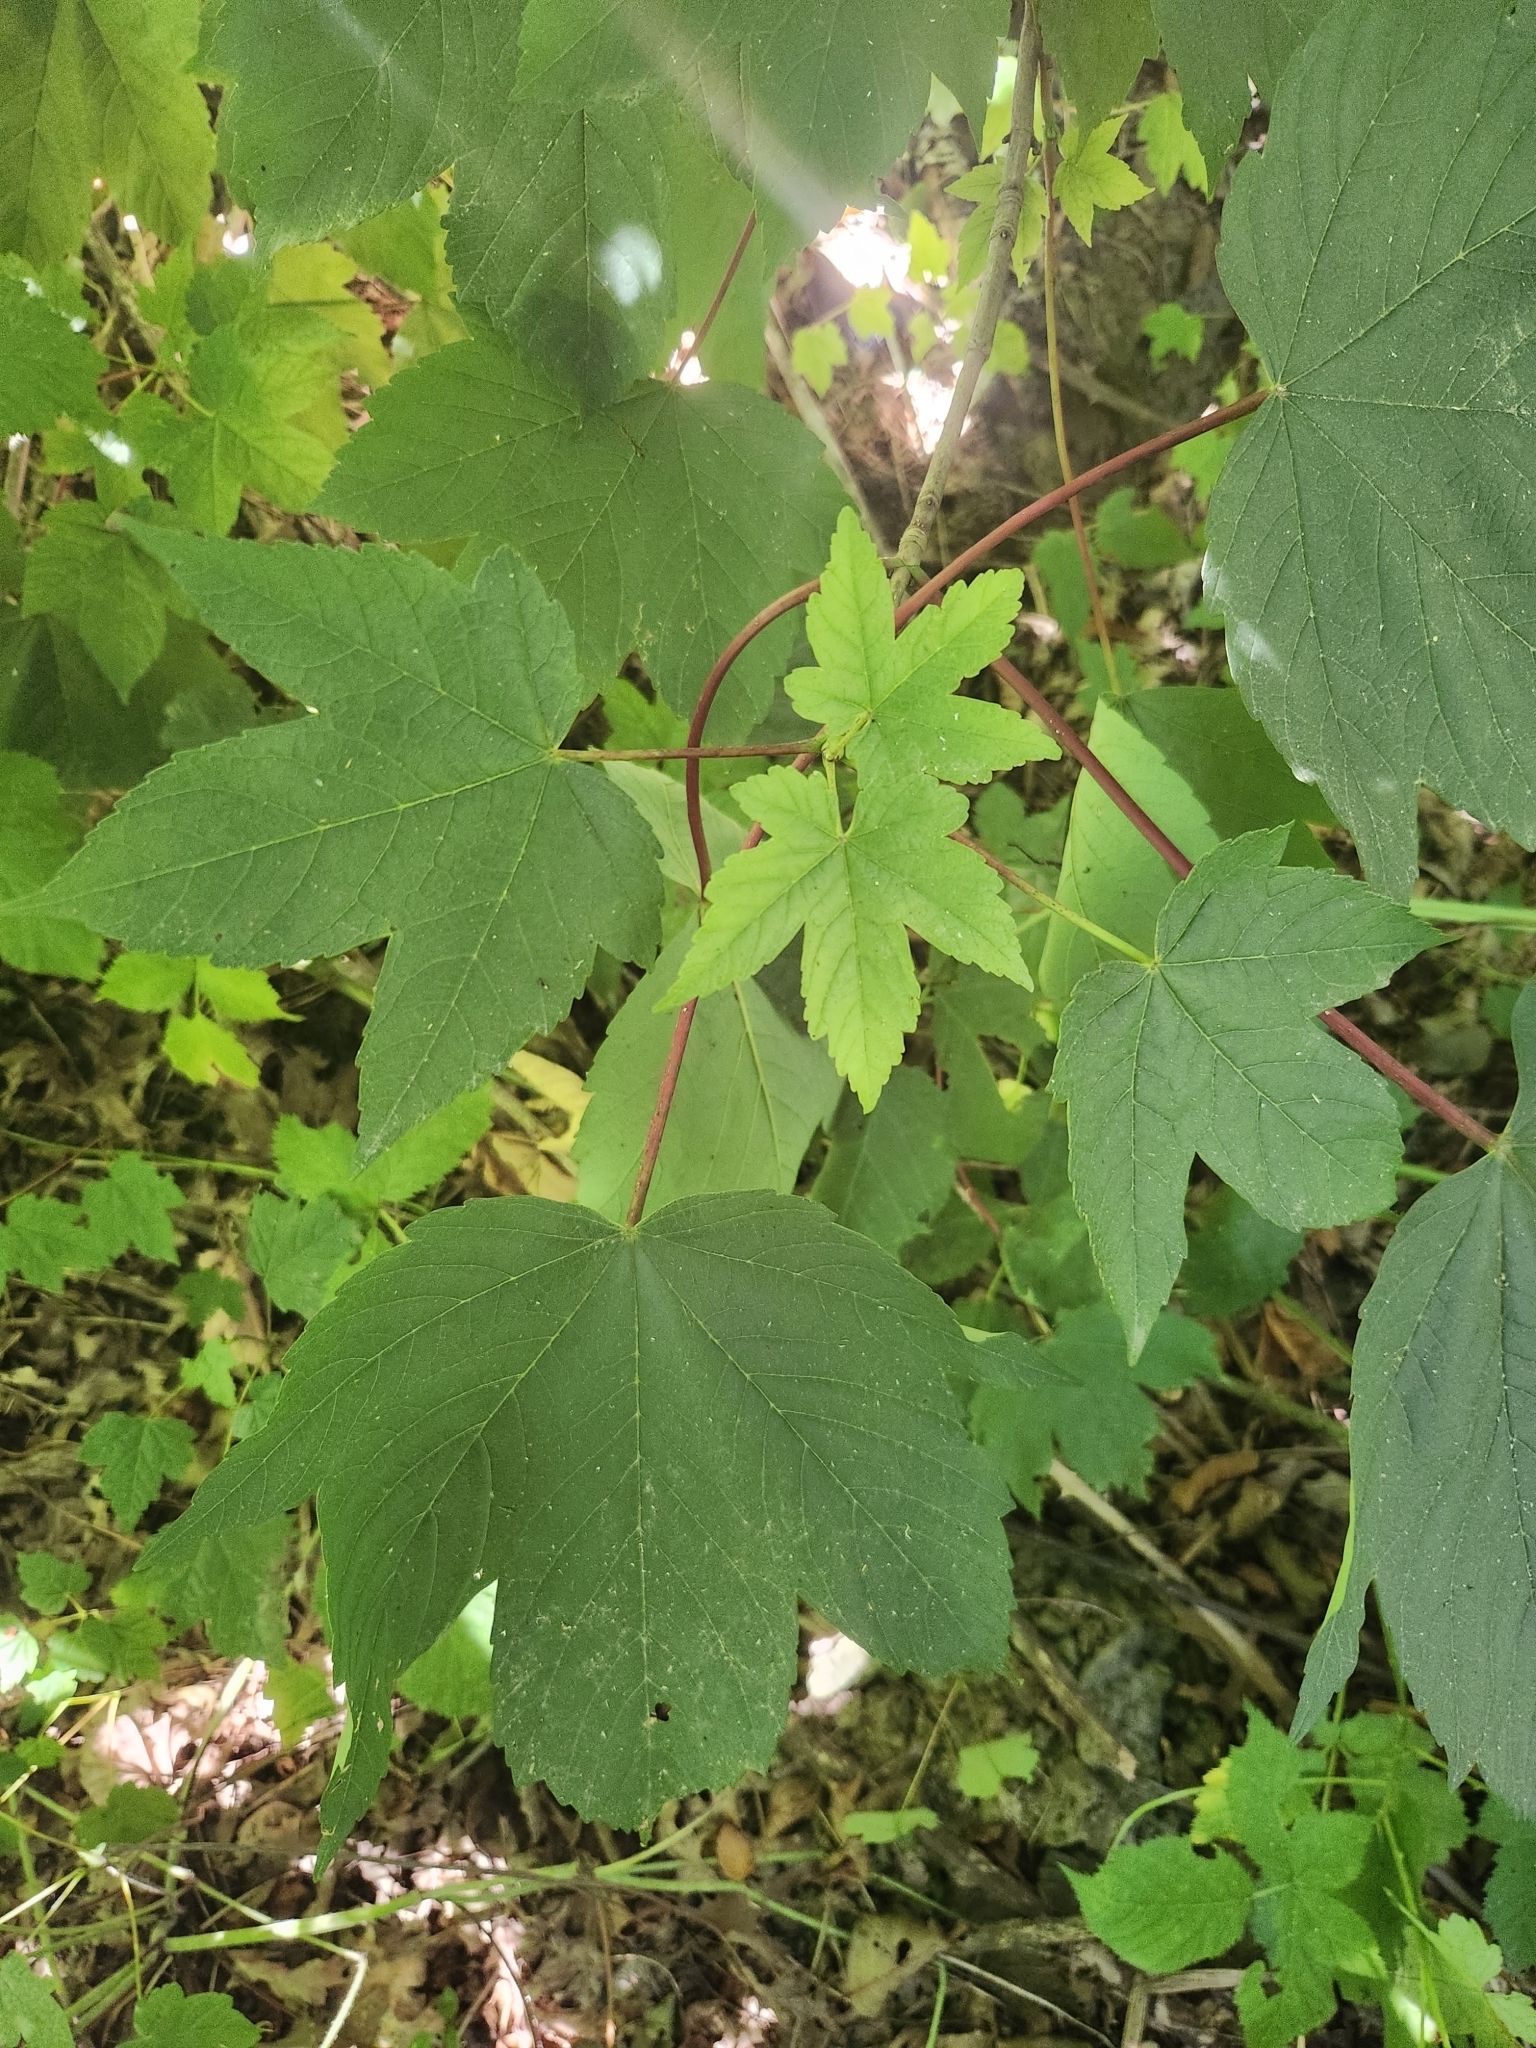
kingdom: Plantae
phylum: Tracheophyta
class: Magnoliopsida
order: Sapindales
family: Sapindaceae
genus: Acer
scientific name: Acer pseudoplatanus
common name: Sycamore
